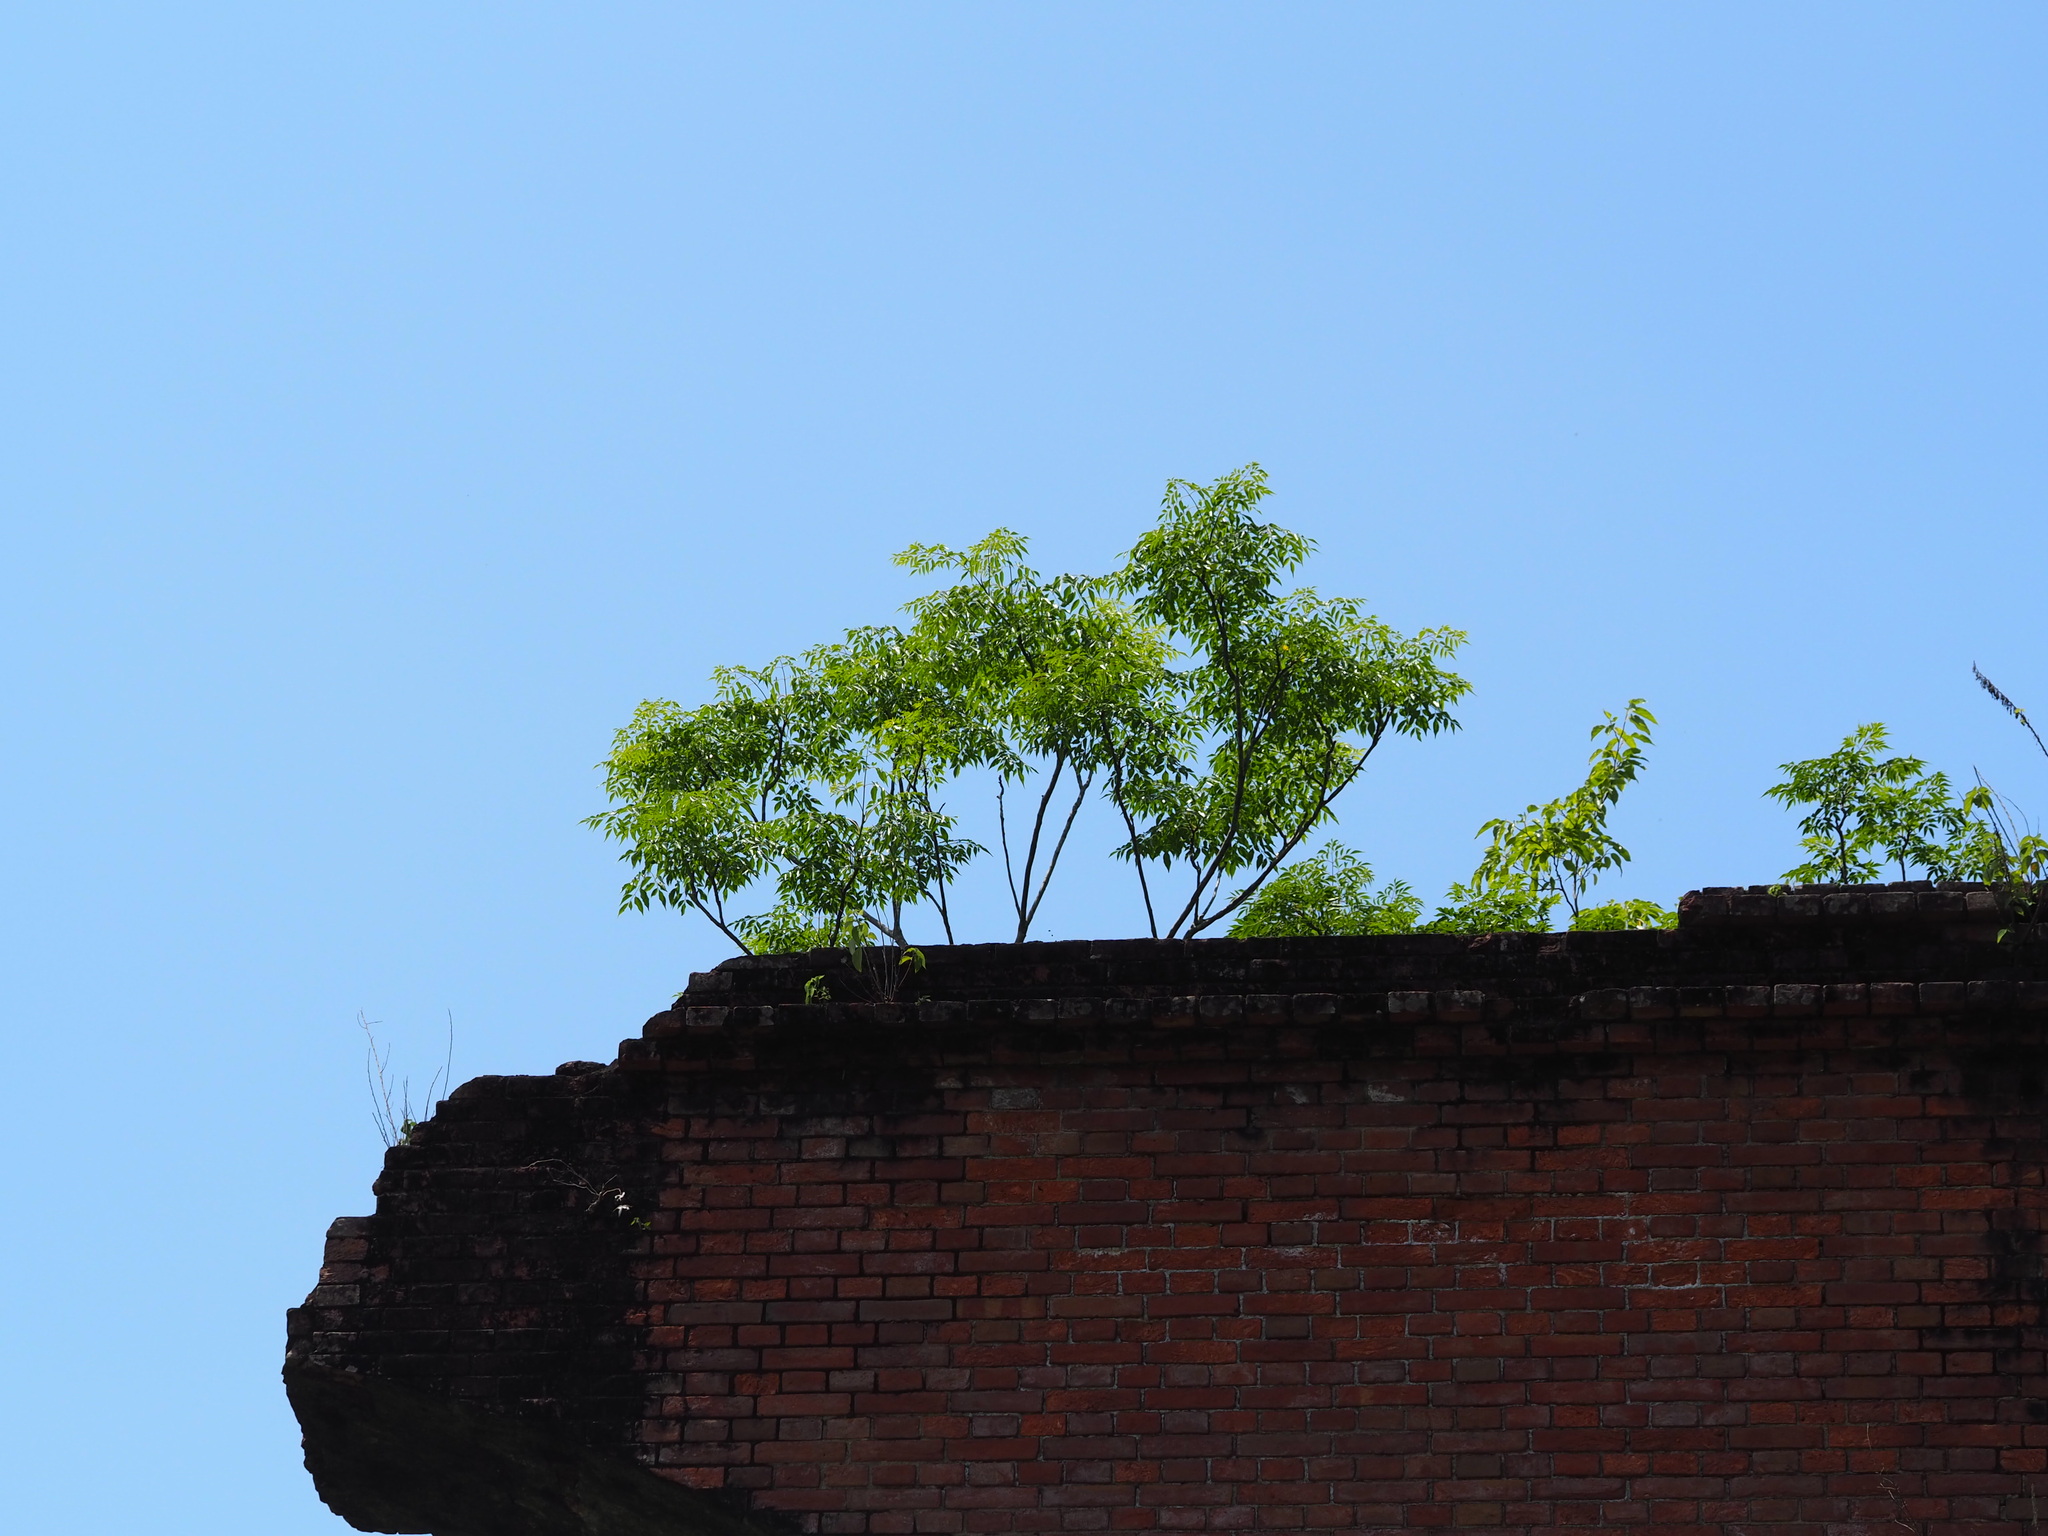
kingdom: Plantae
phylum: Tracheophyta
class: Magnoliopsida
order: Sapindales
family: Meliaceae
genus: Melia
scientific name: Melia azedarach
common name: Chinaberrytree
